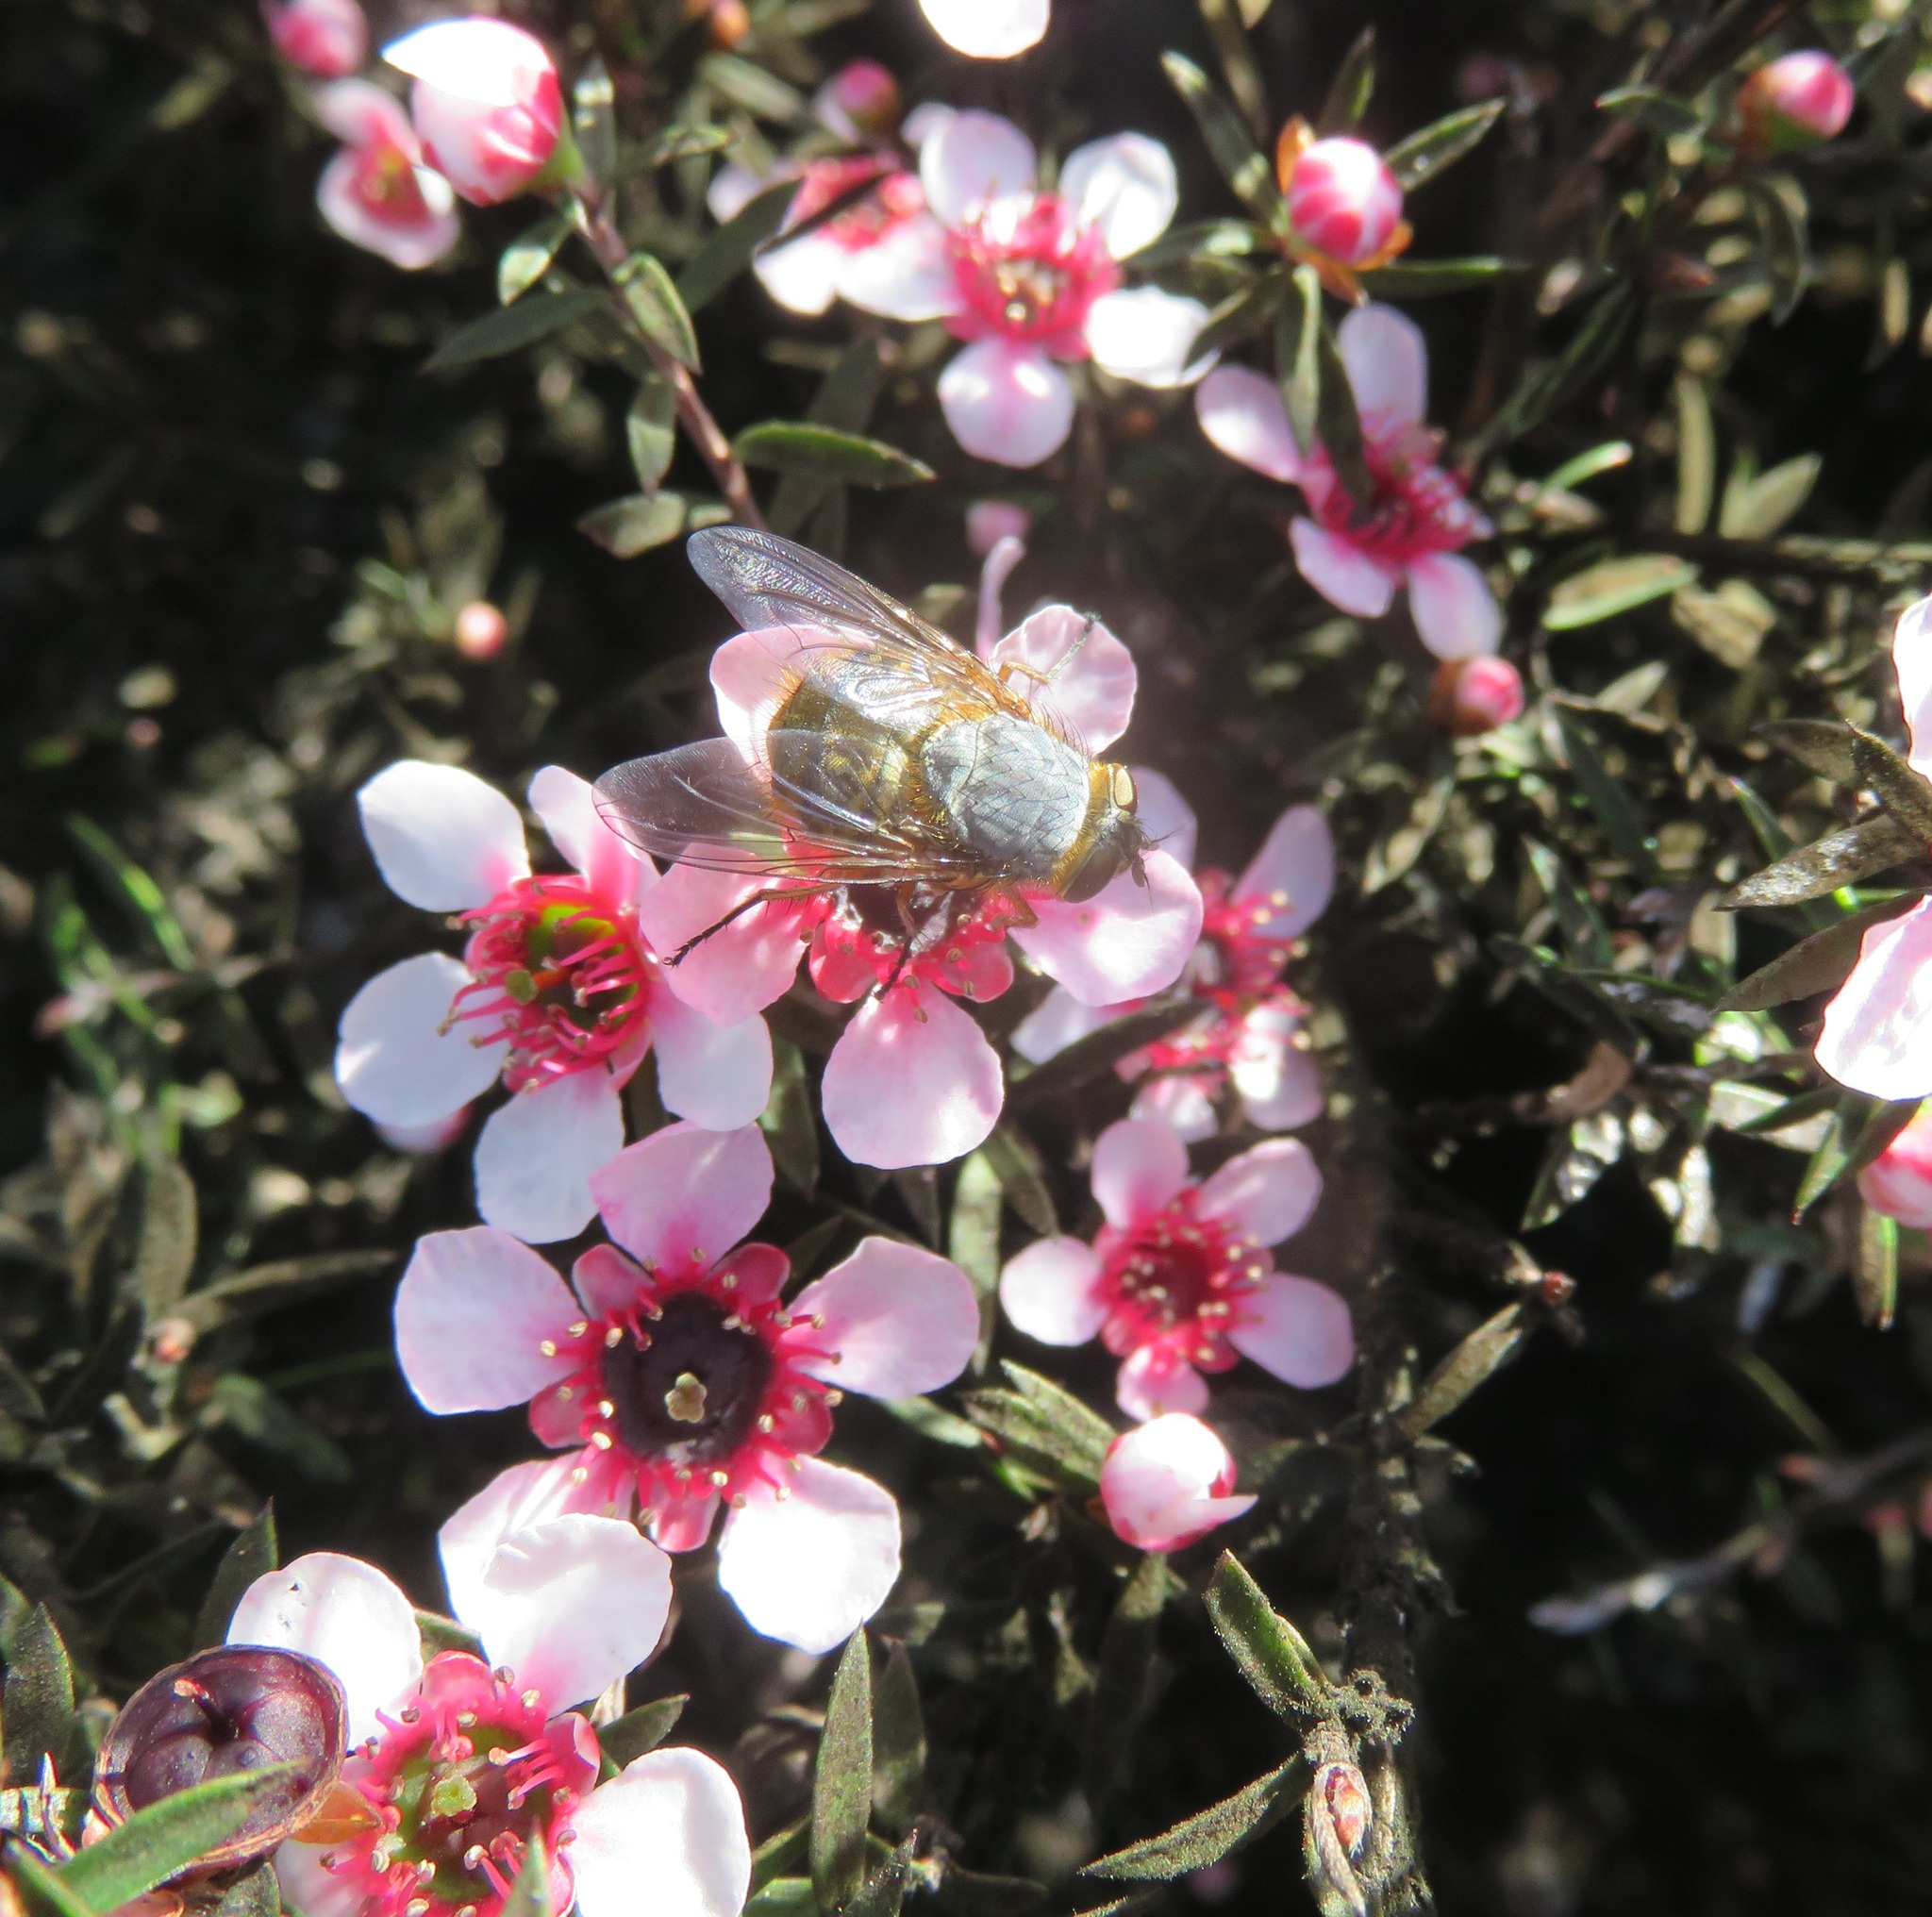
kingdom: Animalia
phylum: Arthropoda
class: Insecta
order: Diptera
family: Calliphoridae
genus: Calliphora
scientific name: Calliphora hilli
